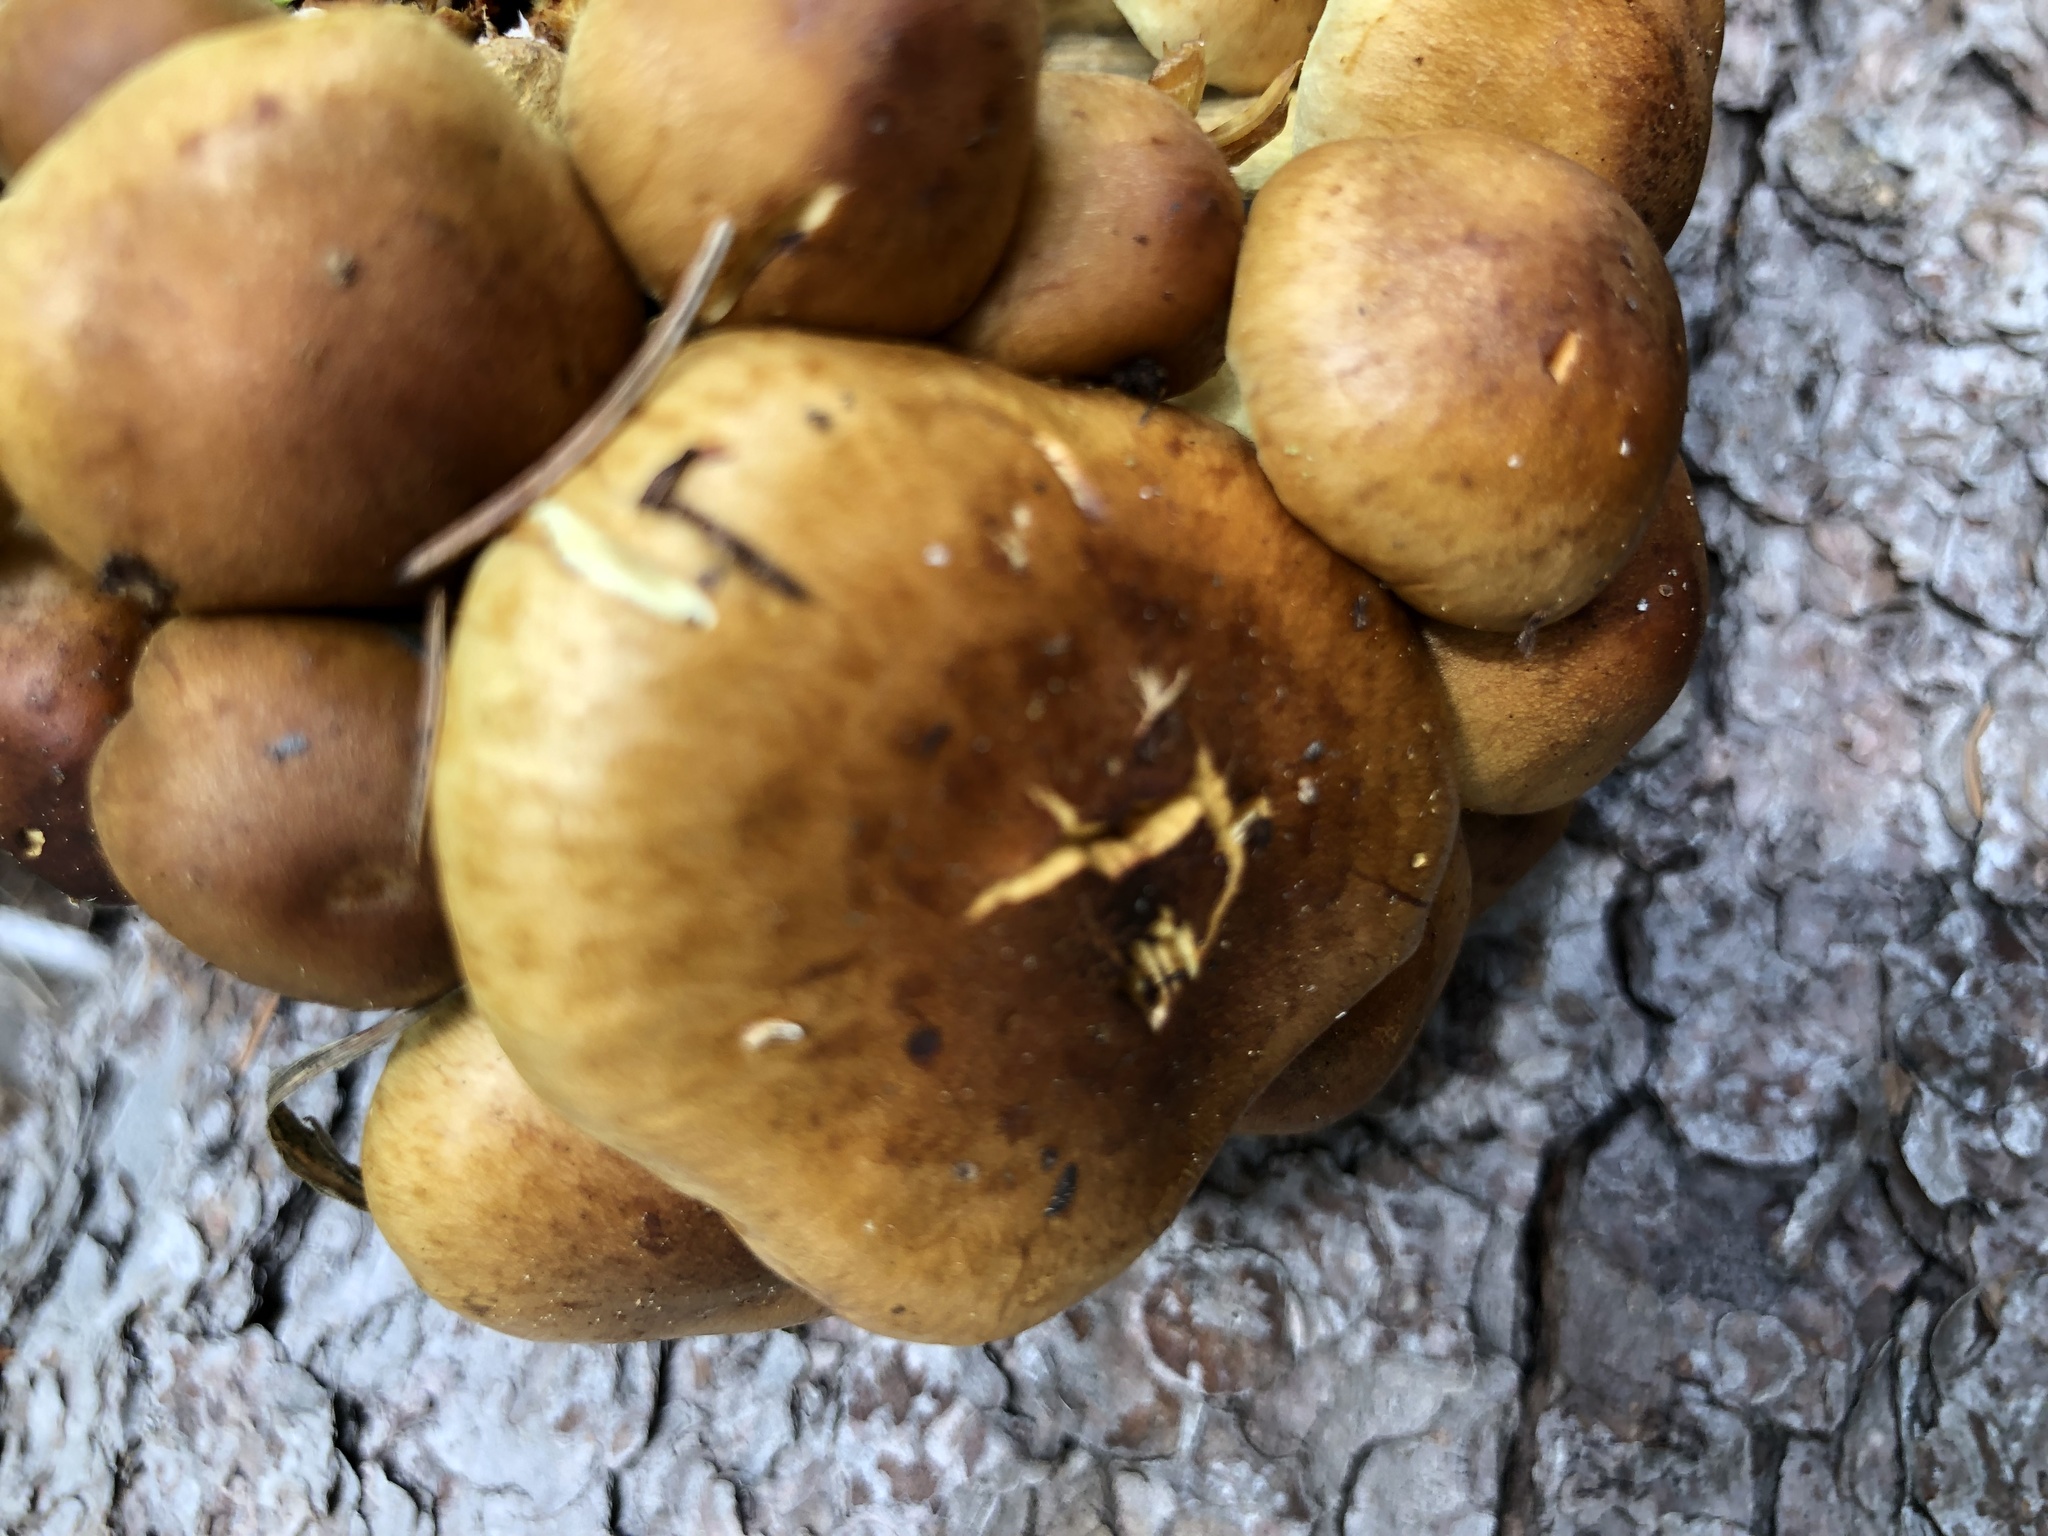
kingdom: Fungi
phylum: Basidiomycota
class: Agaricomycetes
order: Agaricales
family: Strophariaceae
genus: Pholiota
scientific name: Pholiota spumosa
